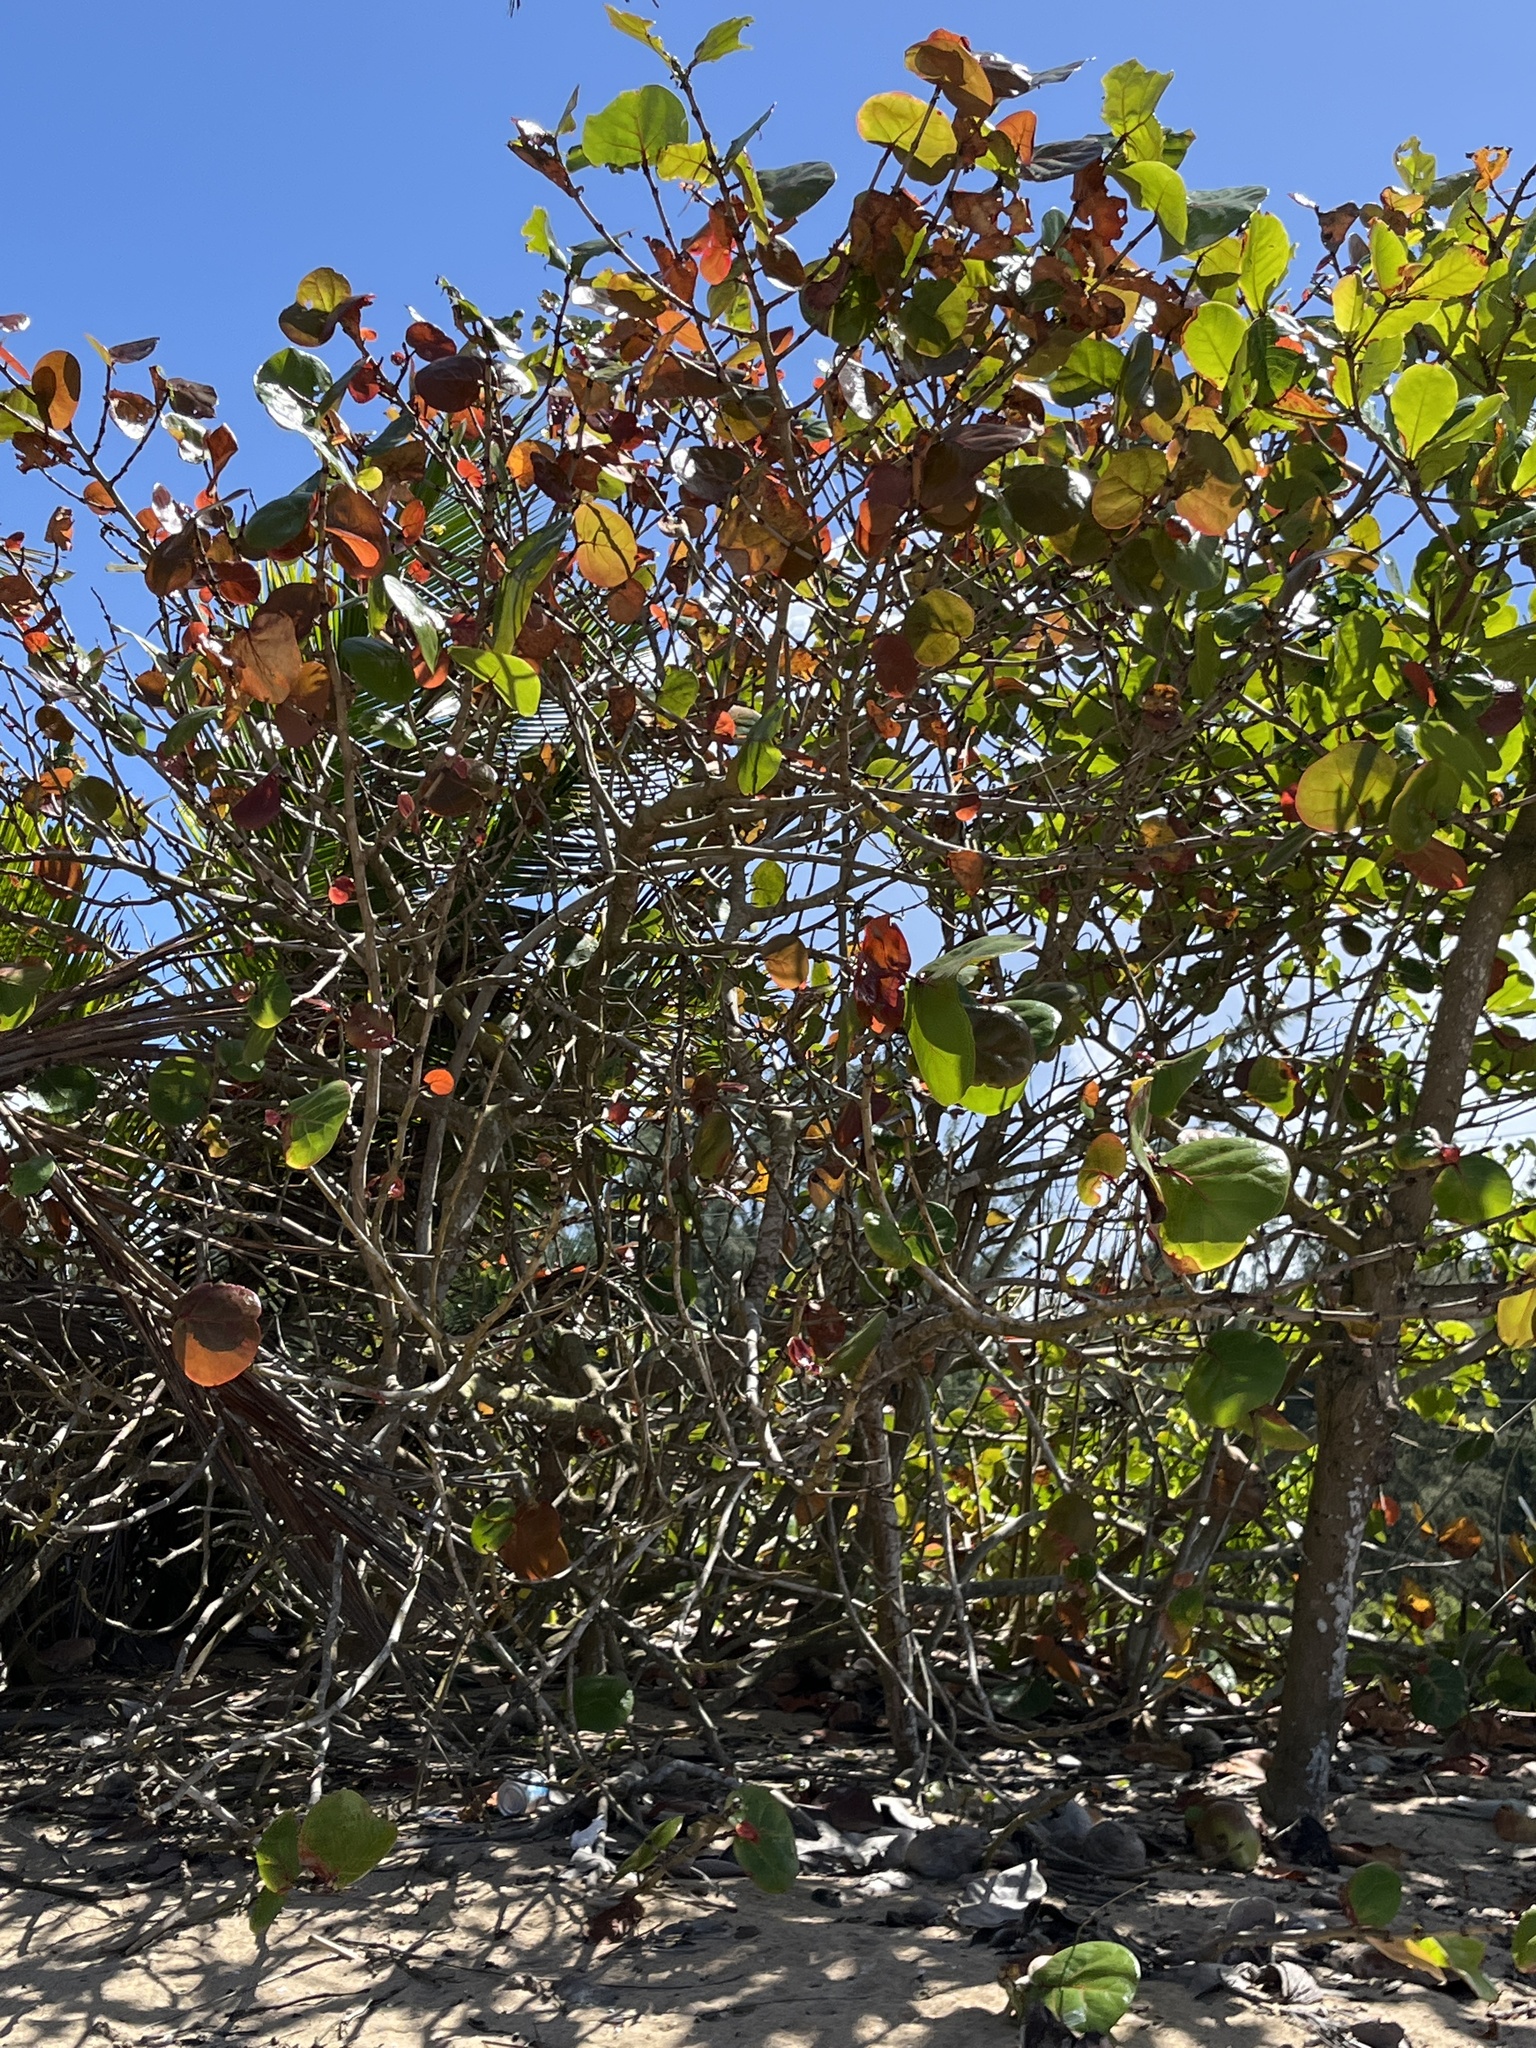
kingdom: Plantae
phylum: Tracheophyta
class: Magnoliopsida
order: Caryophyllales
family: Polygonaceae
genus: Coccoloba
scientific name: Coccoloba uvifera
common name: Seagrape
